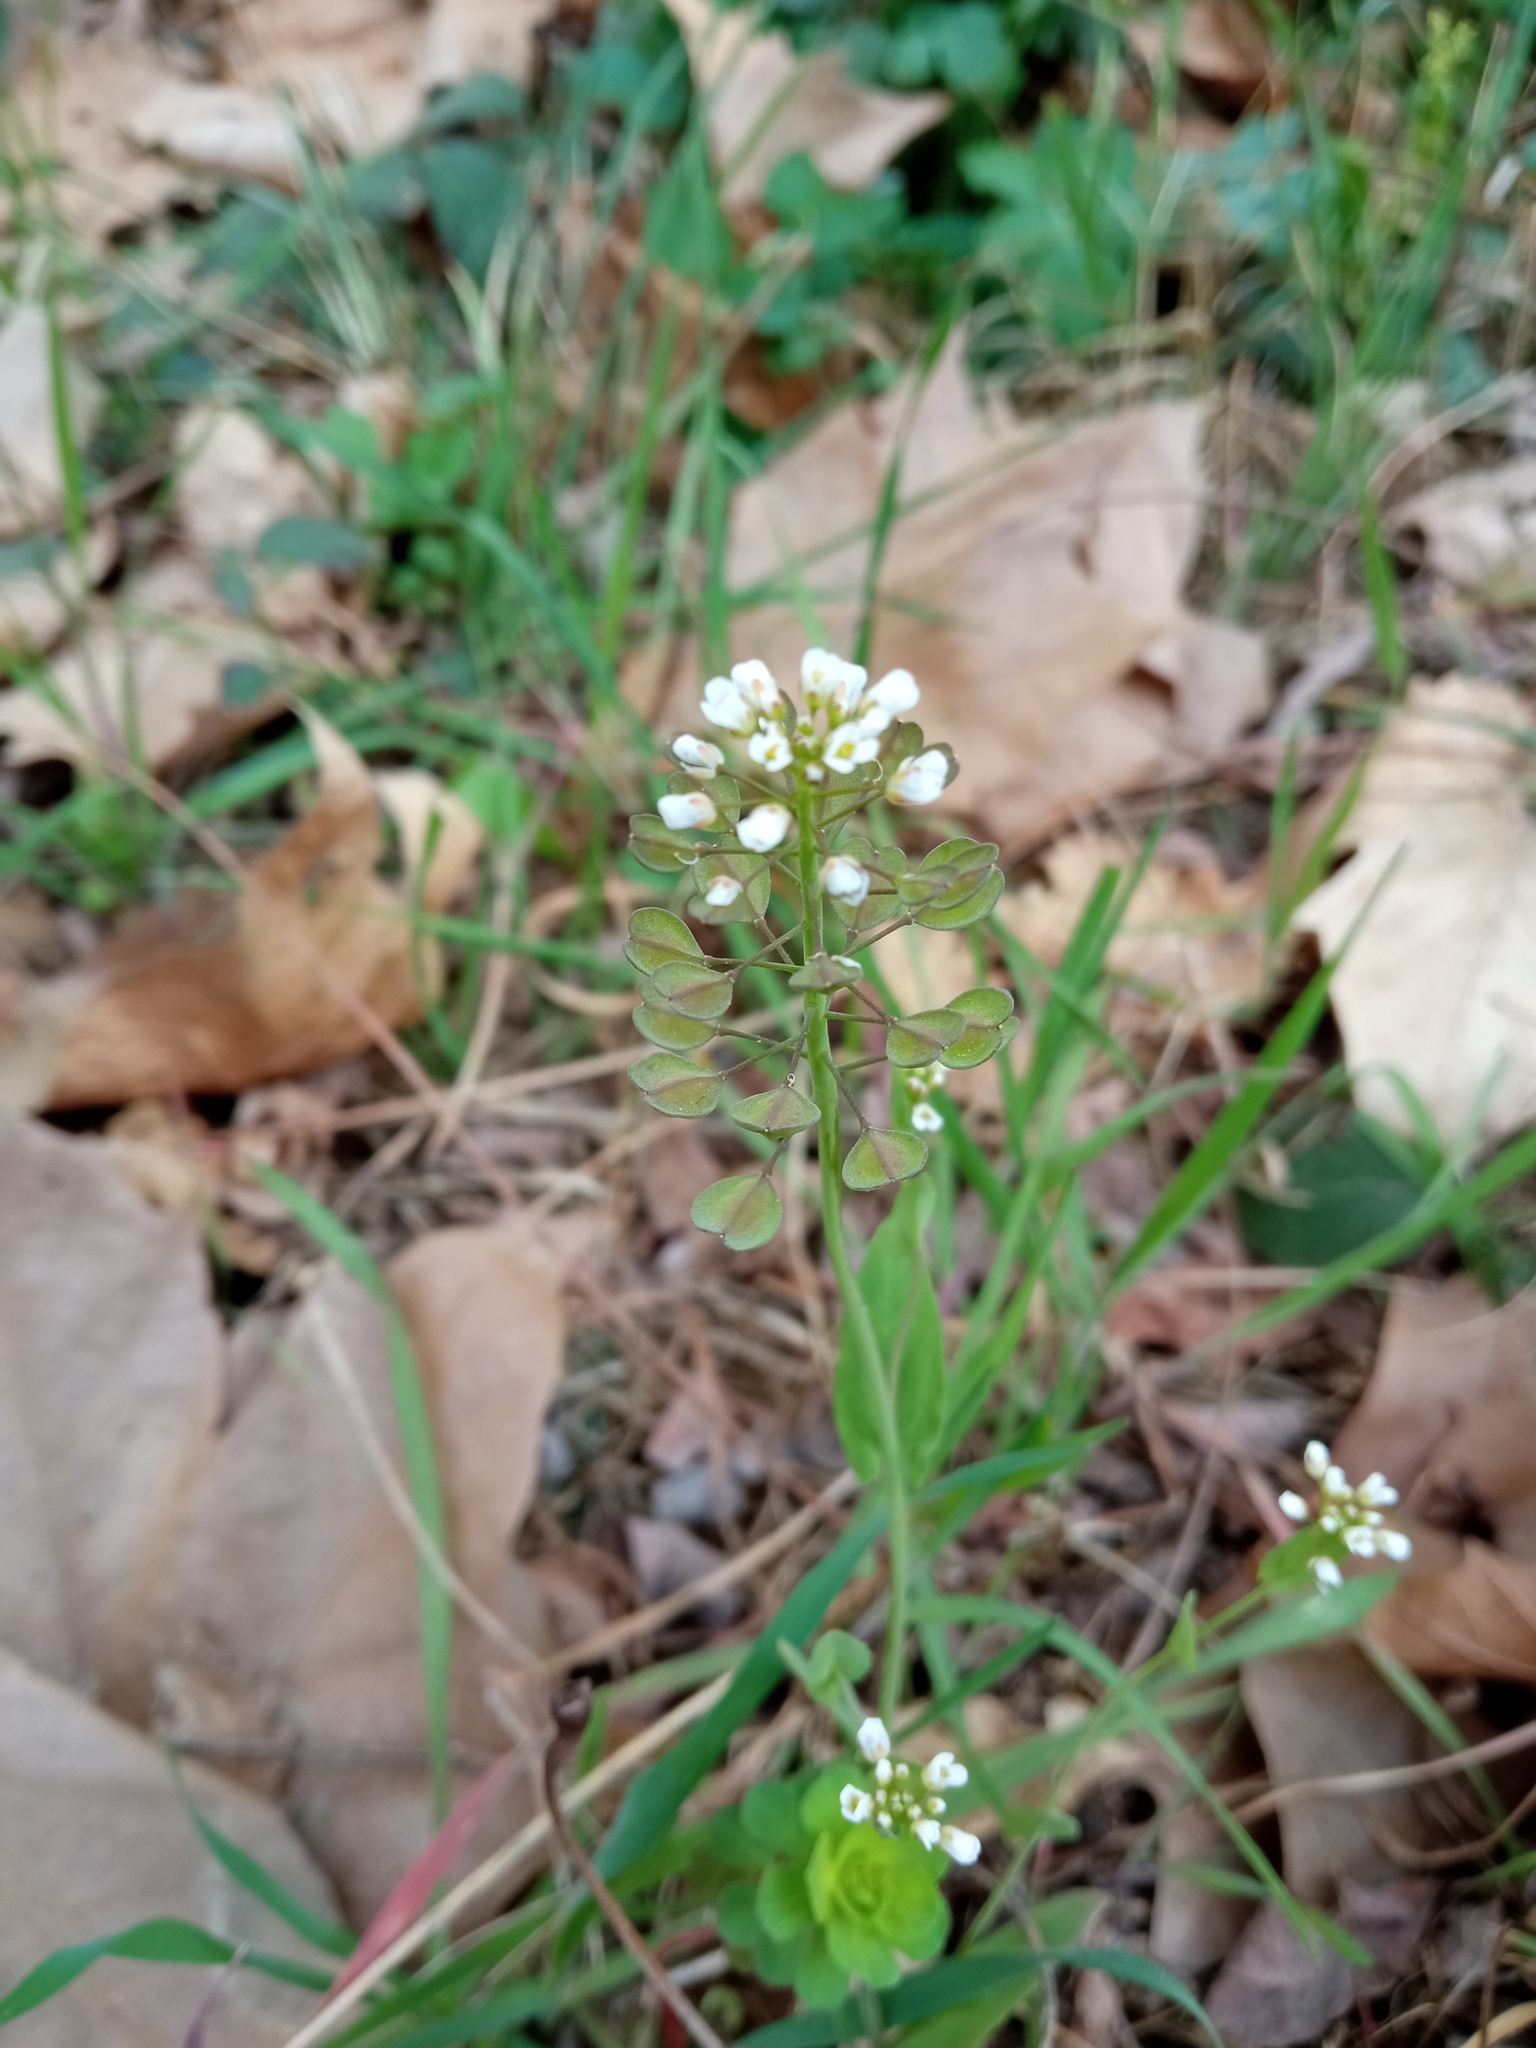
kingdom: Plantae
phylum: Tracheophyta
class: Magnoliopsida
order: Brassicales
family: Brassicaceae
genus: Noccaea
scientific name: Noccaea perfoliata
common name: Perfoliate pennycress
